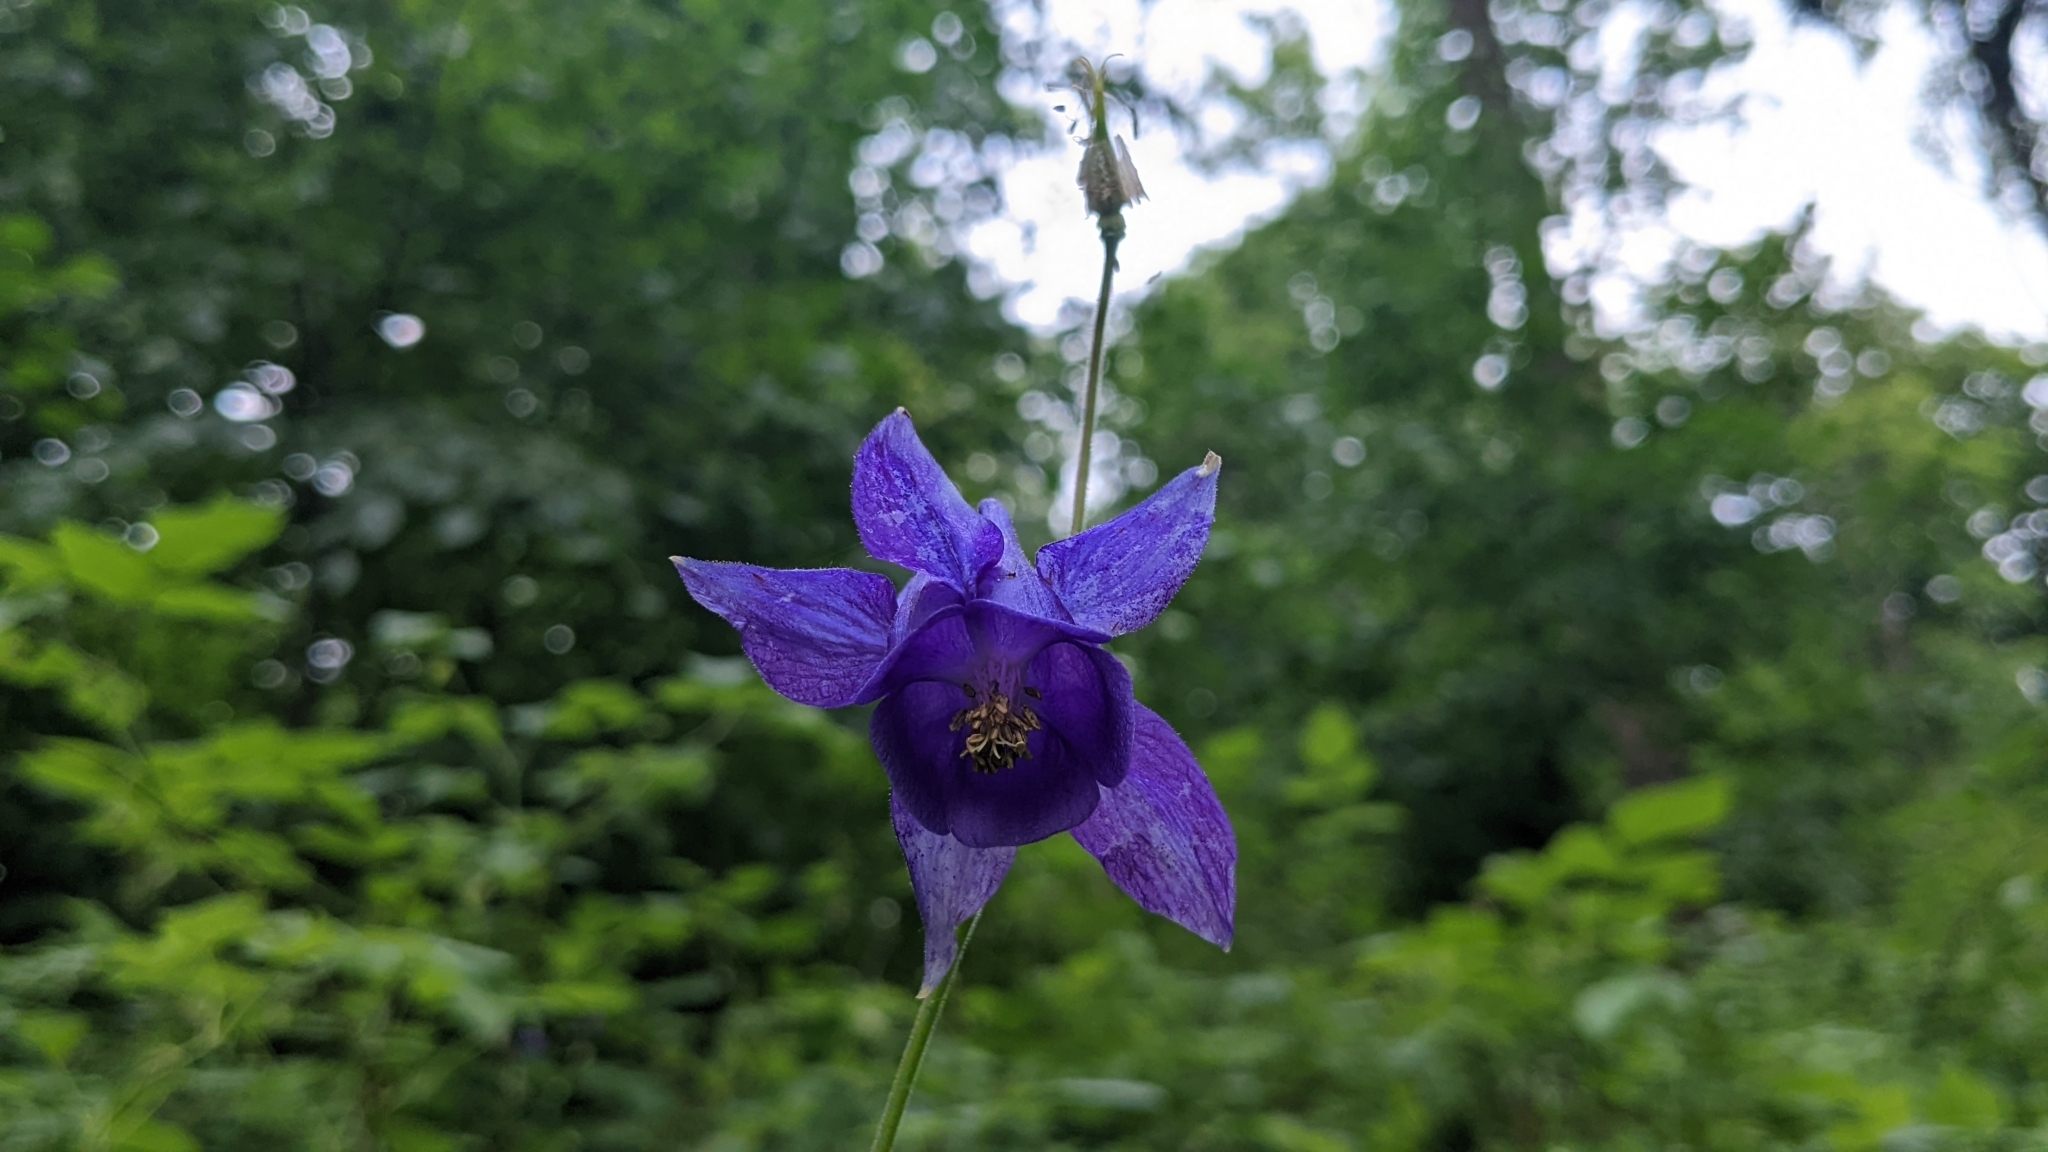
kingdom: Plantae
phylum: Tracheophyta
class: Magnoliopsida
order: Ranunculales
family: Ranunculaceae
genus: Aquilegia
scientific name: Aquilegia vulgaris
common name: Columbine
